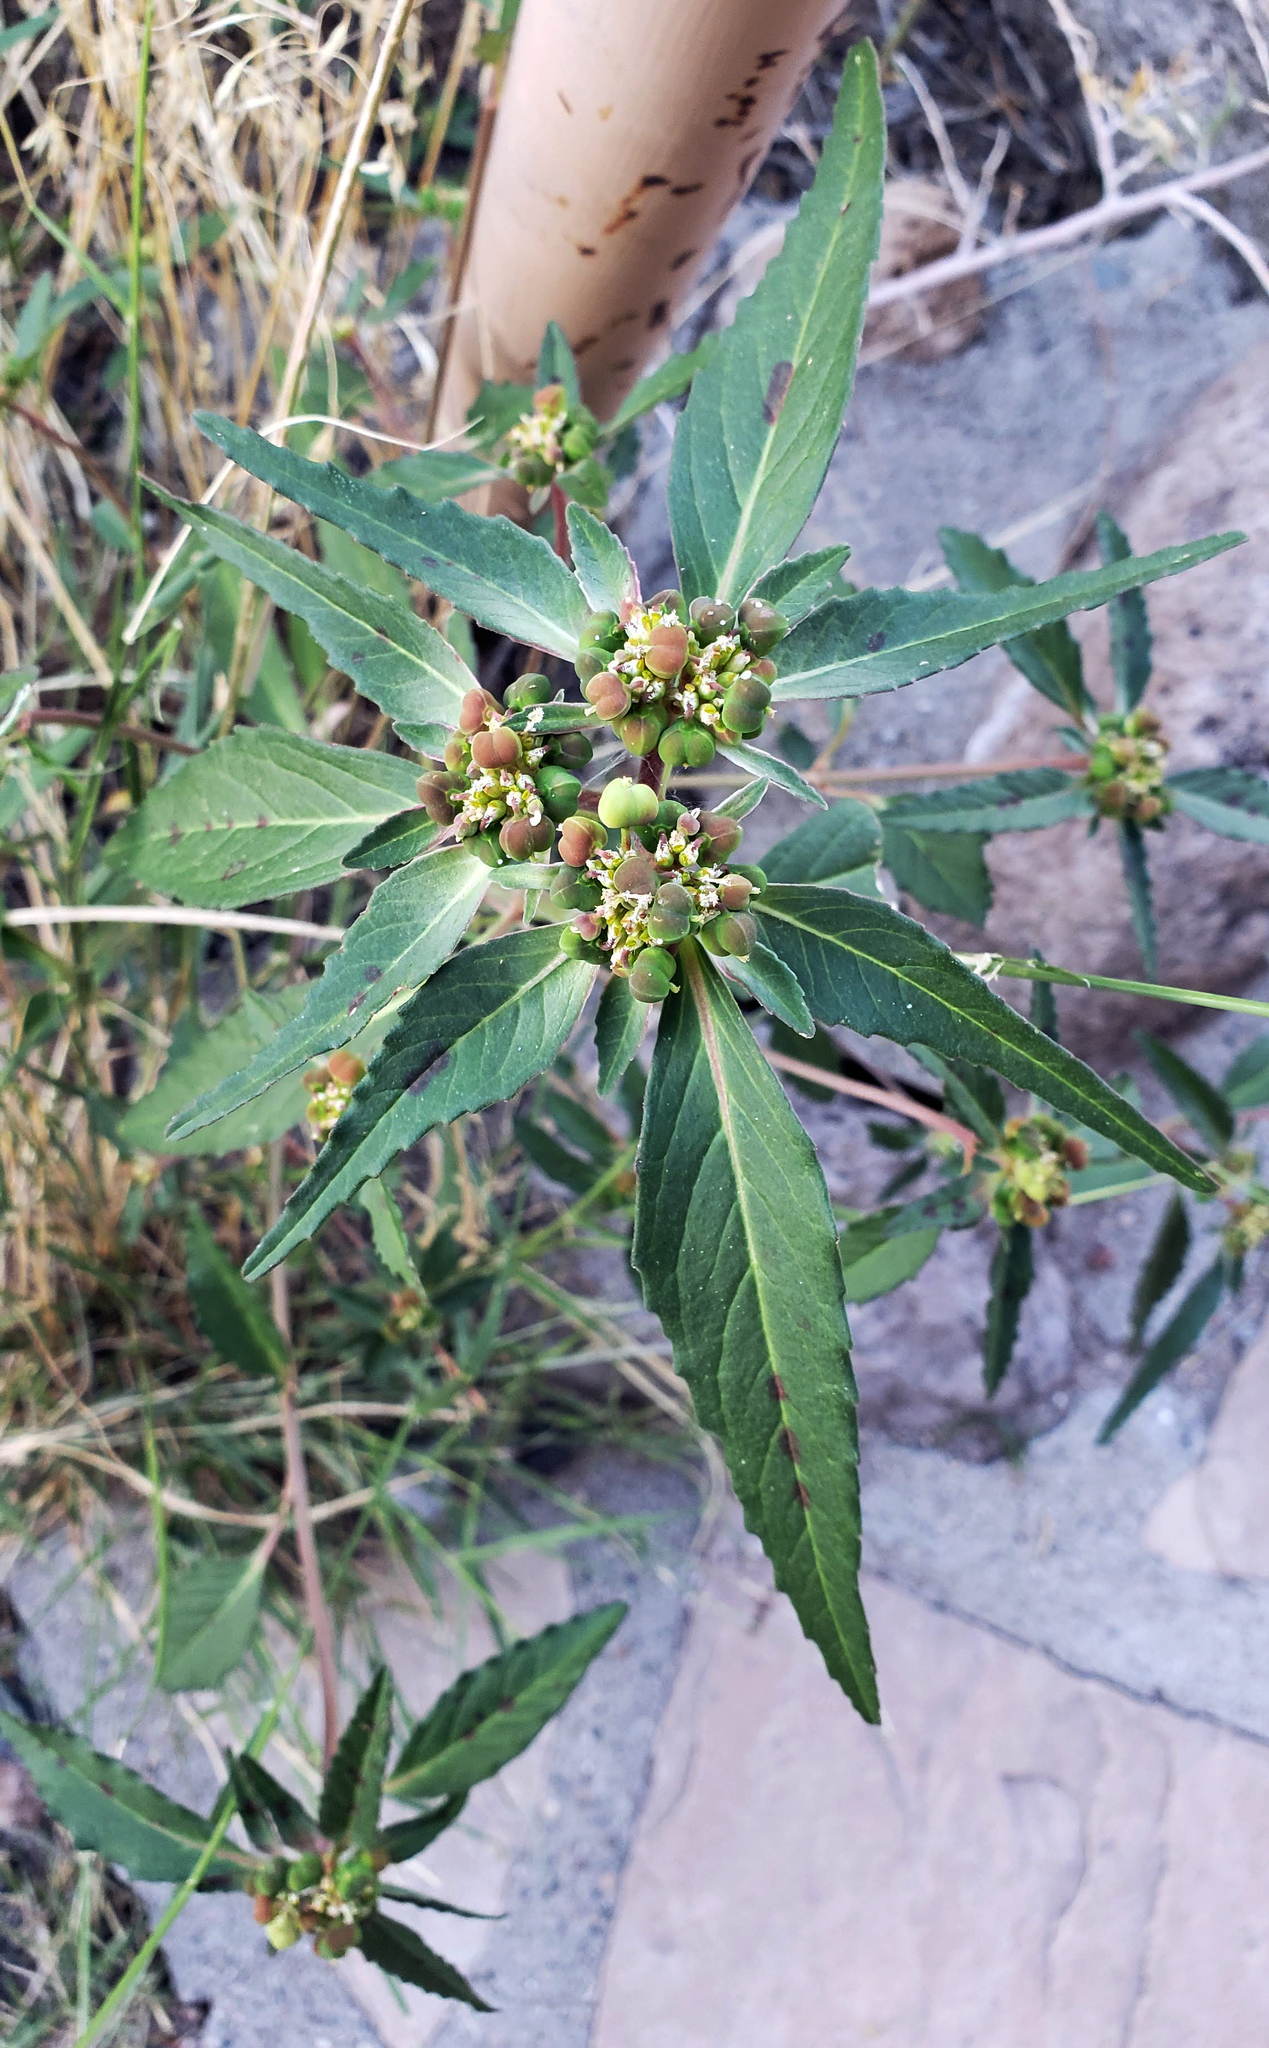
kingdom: Plantae
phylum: Tracheophyta
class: Magnoliopsida
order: Malpighiales
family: Euphorbiaceae
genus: Euphorbia
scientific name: Euphorbia davidii
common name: David's spurge
